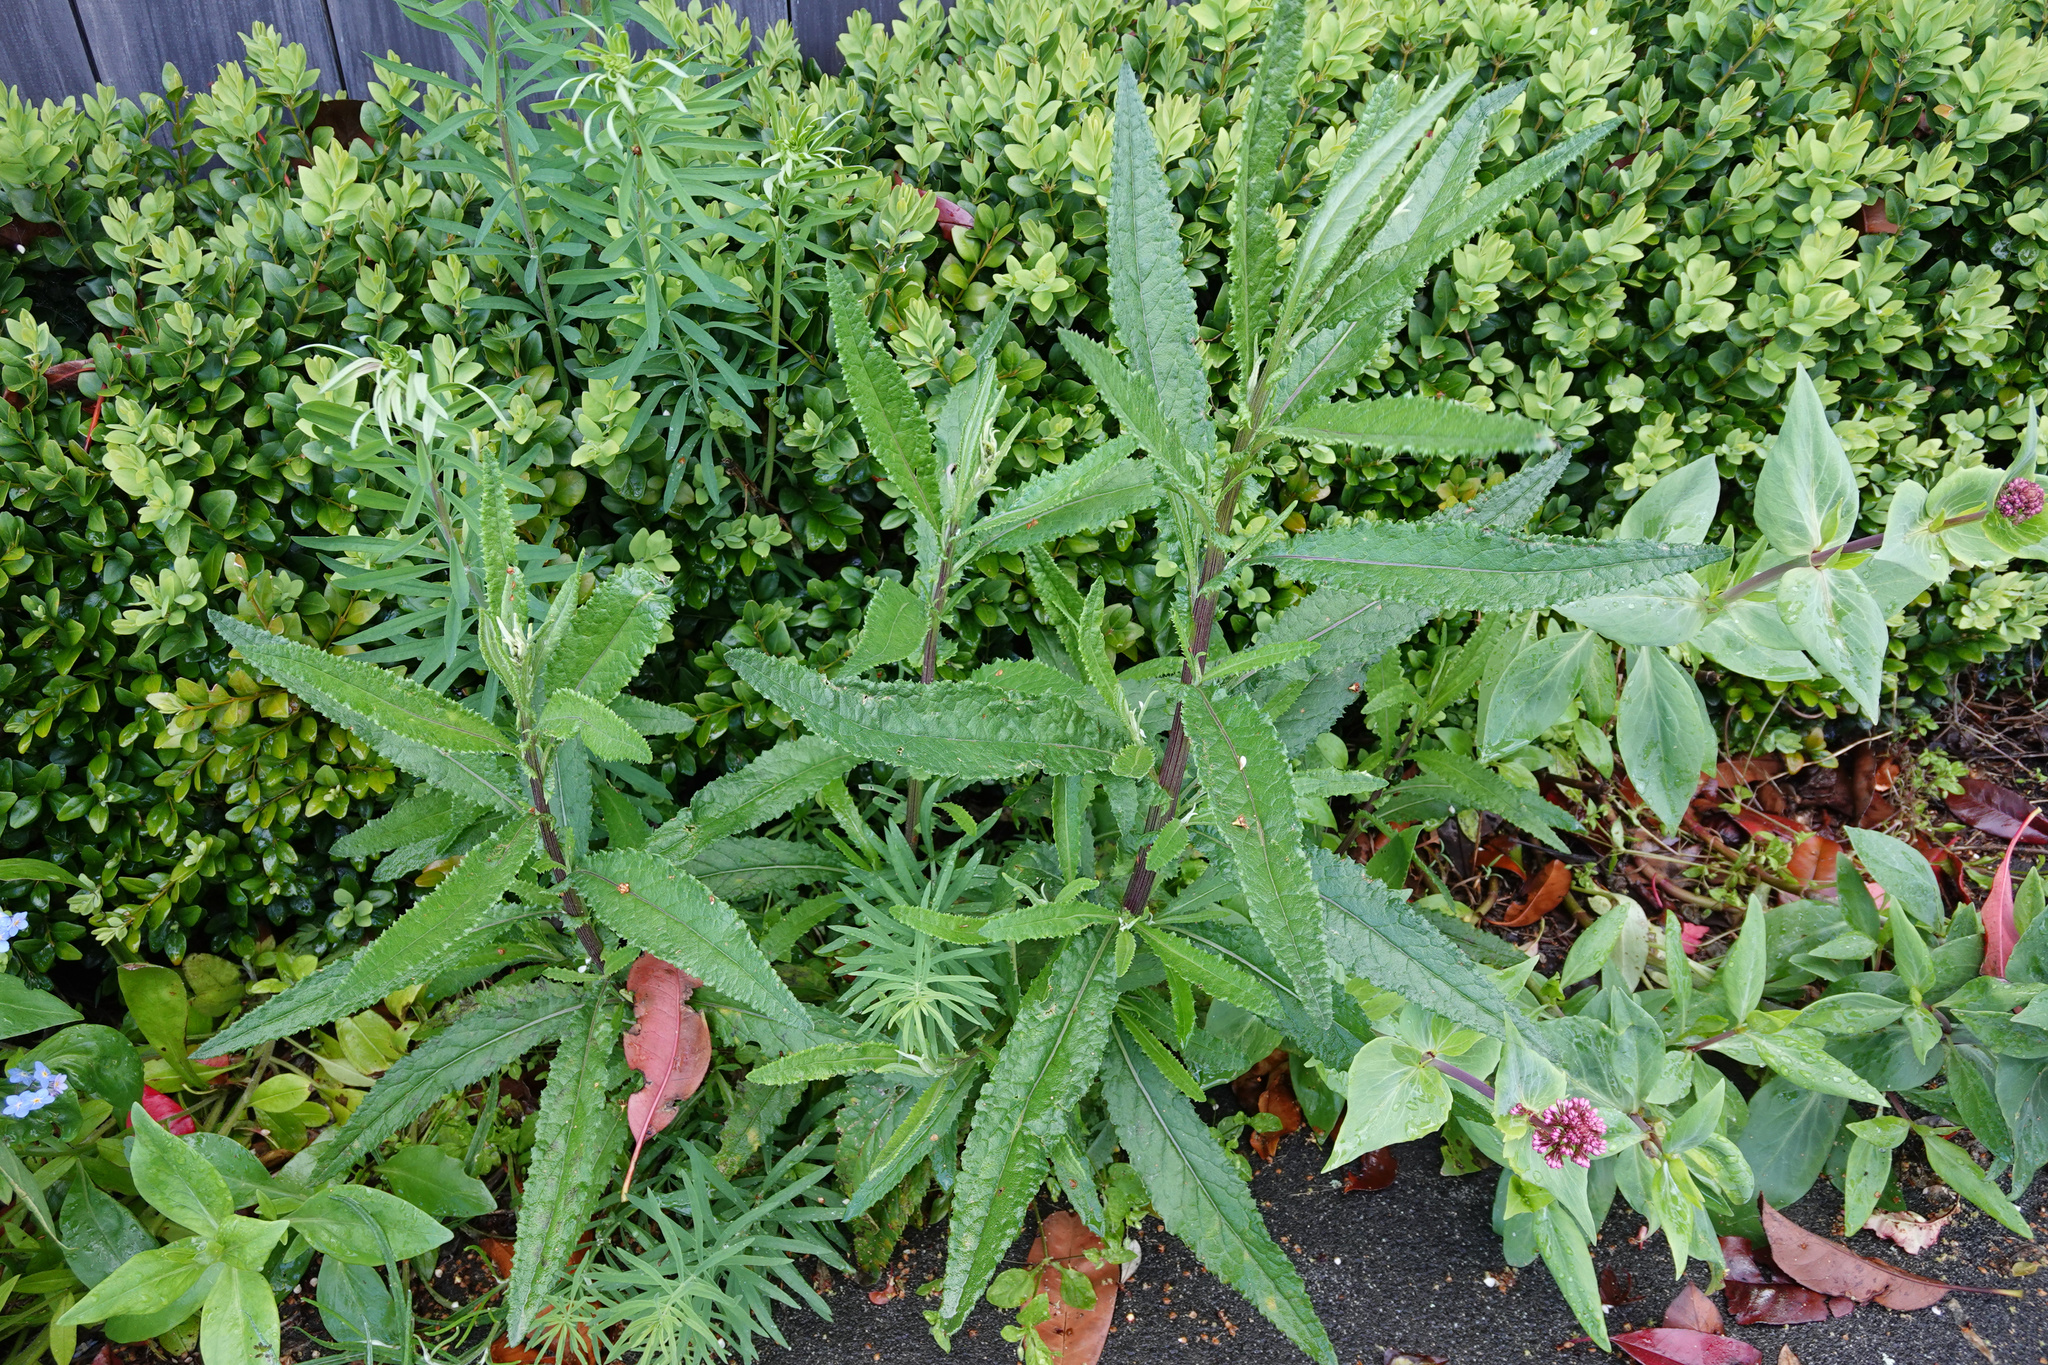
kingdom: Plantae
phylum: Tracheophyta
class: Magnoliopsida
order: Asterales
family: Asteraceae
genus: Senecio
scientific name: Senecio minimus
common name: Toothed fireweed
